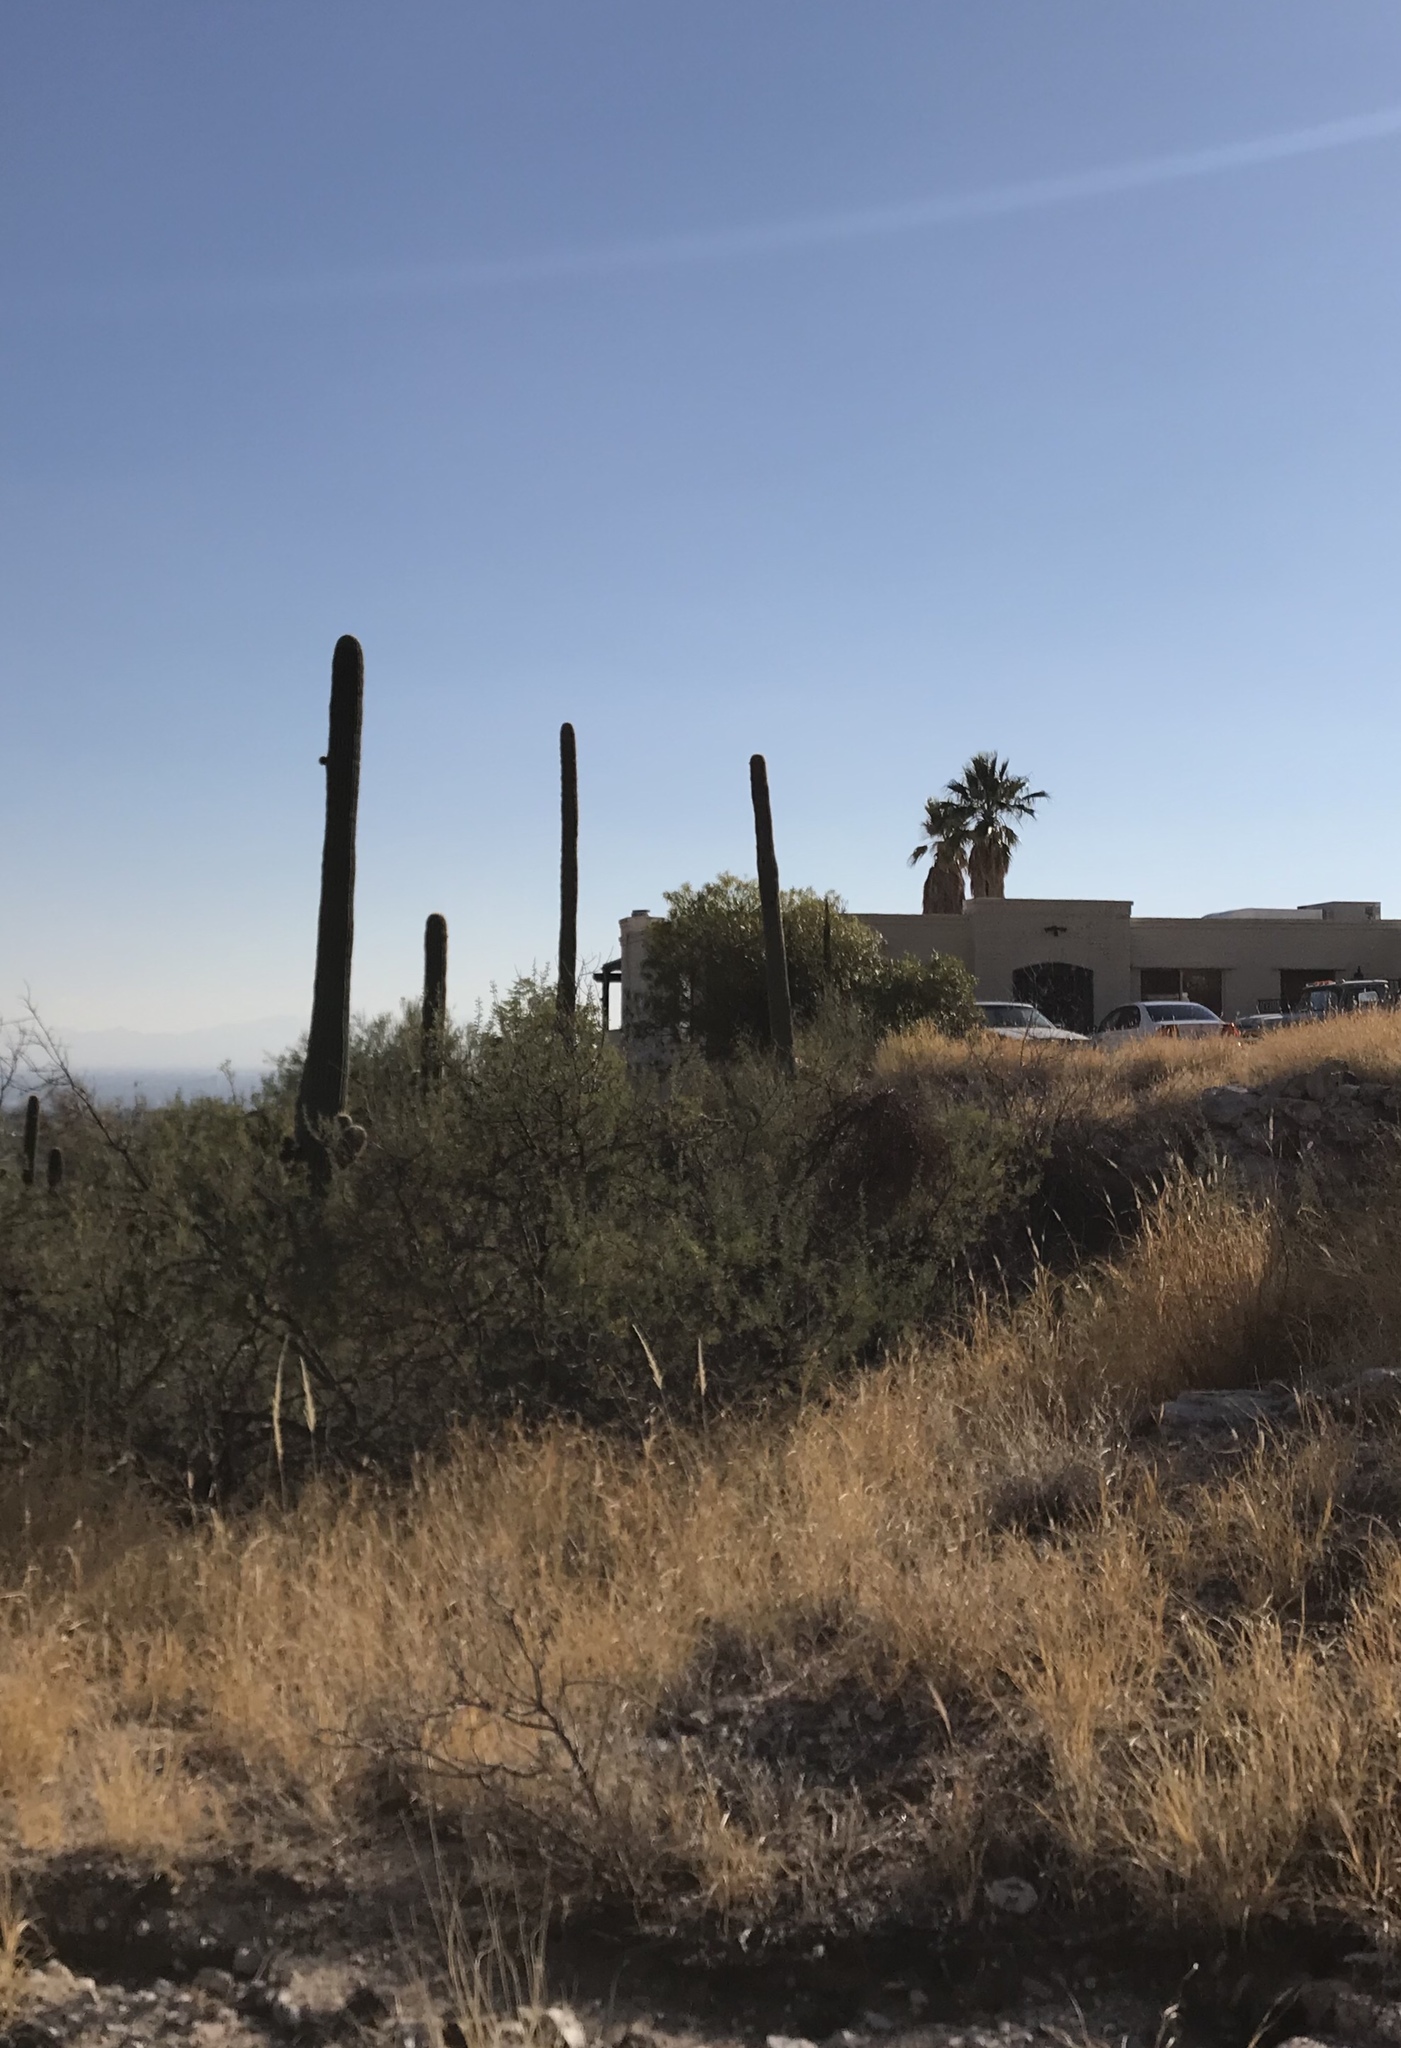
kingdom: Plantae
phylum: Tracheophyta
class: Magnoliopsida
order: Caryophyllales
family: Cactaceae
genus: Carnegiea
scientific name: Carnegiea gigantea
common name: Saguaro
